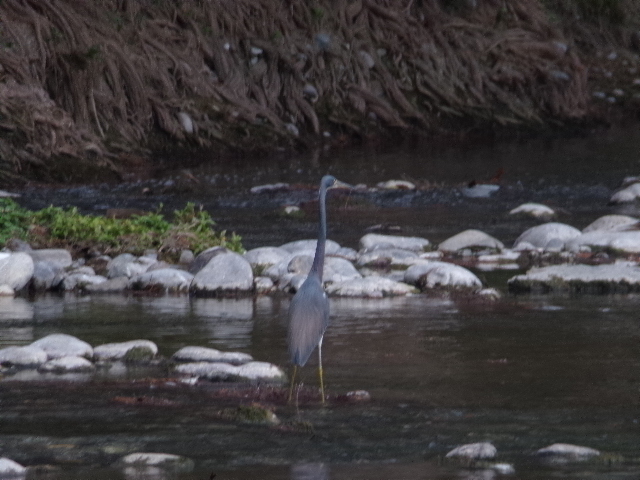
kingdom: Animalia
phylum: Chordata
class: Aves
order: Pelecaniformes
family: Ardeidae
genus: Egretta
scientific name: Egretta tricolor
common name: Tricolored heron
